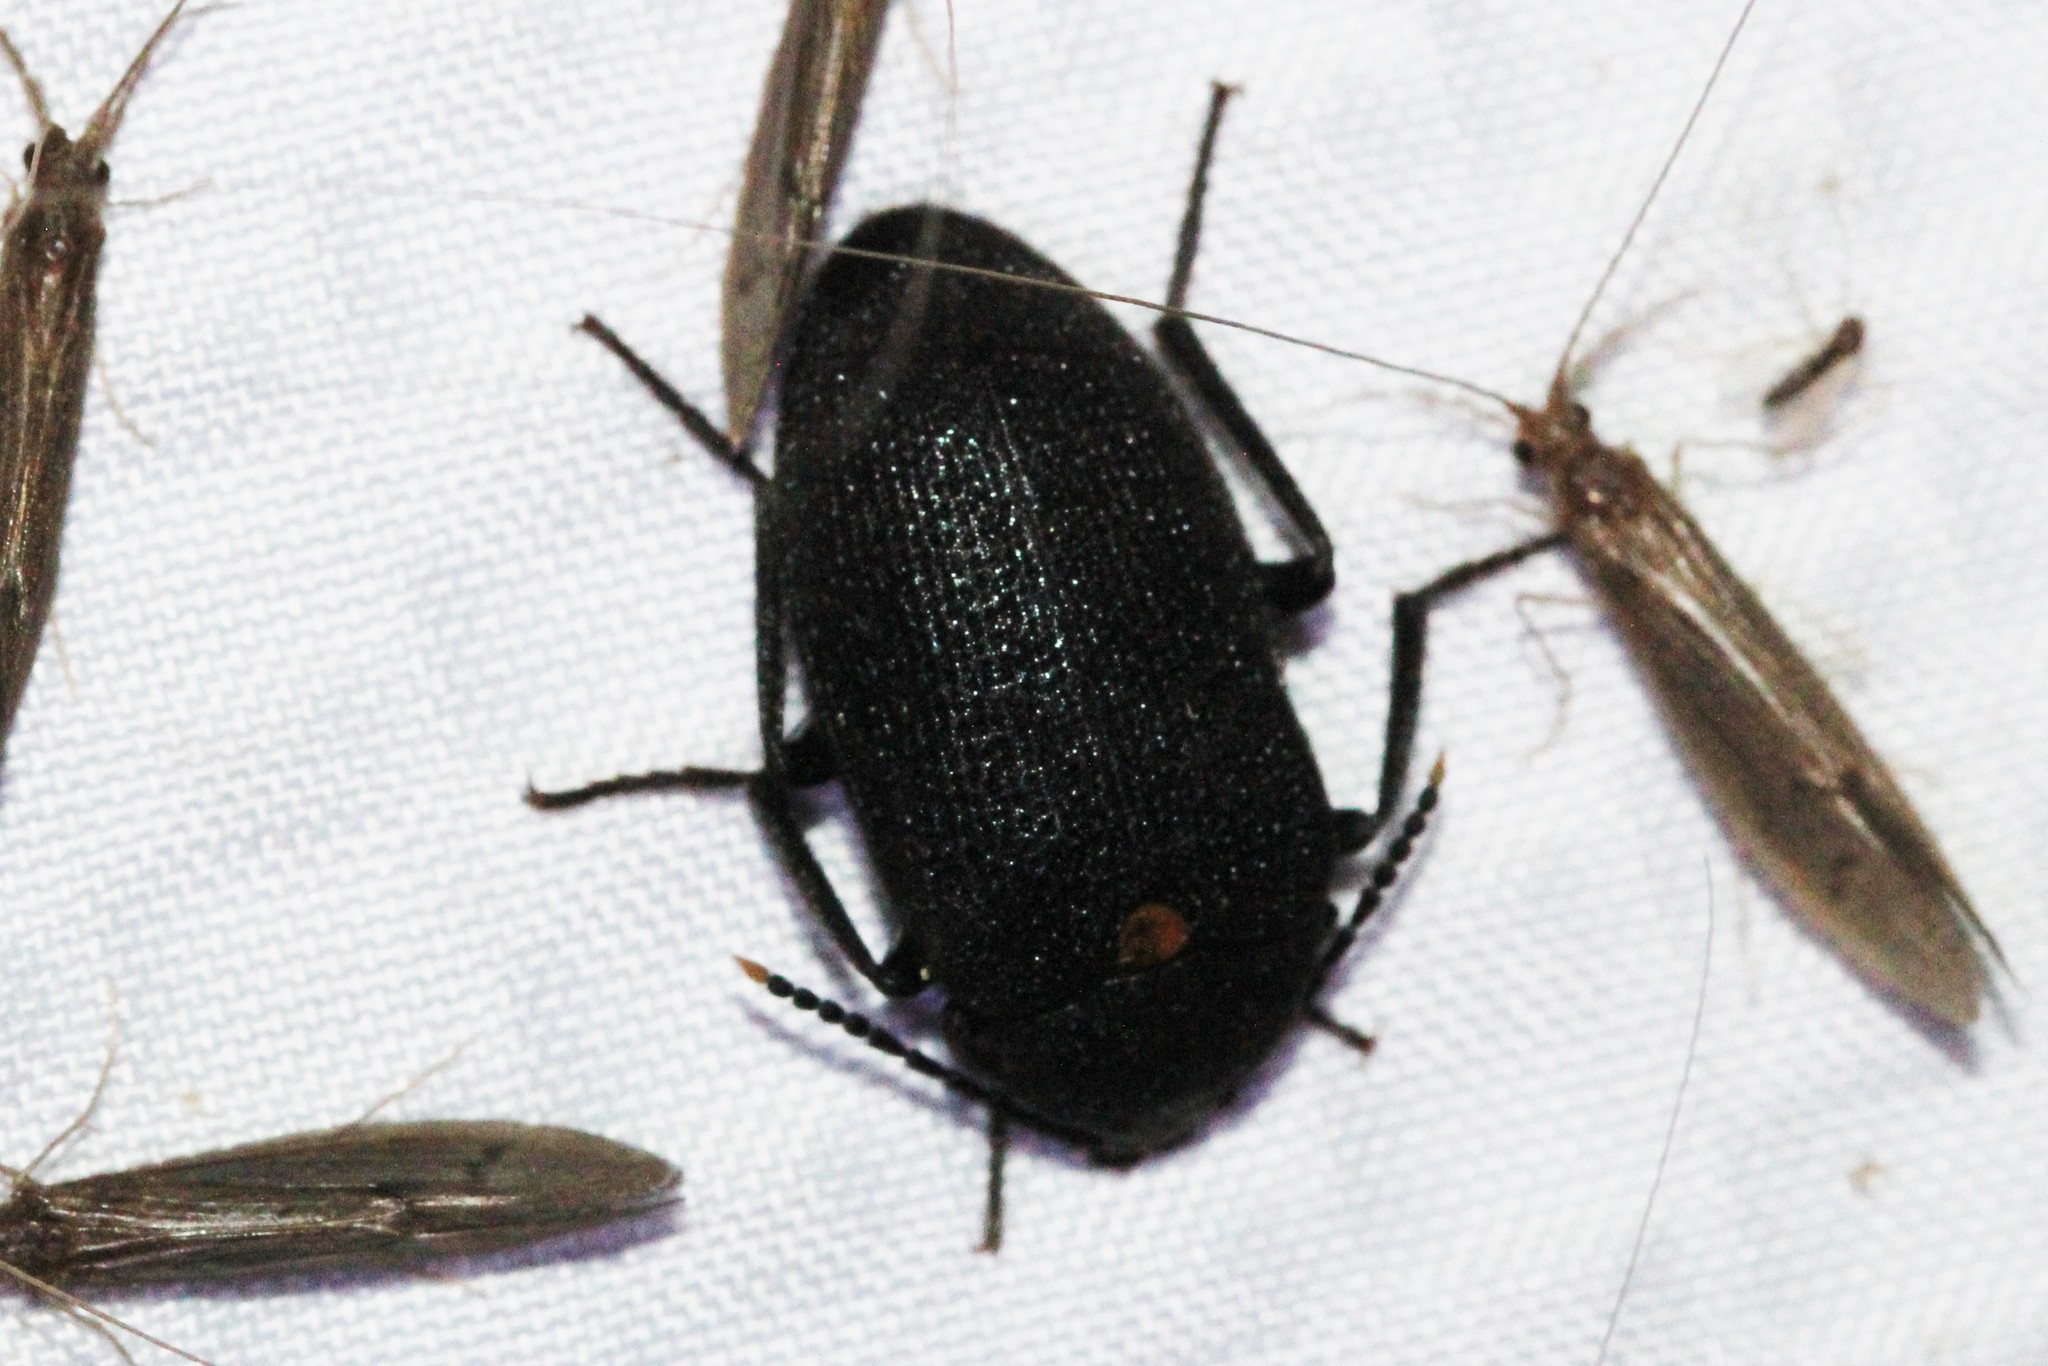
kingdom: Animalia
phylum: Arthropoda
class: Insecta
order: Coleoptera
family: Tetratomidae
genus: Penthe
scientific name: Penthe obliquata
